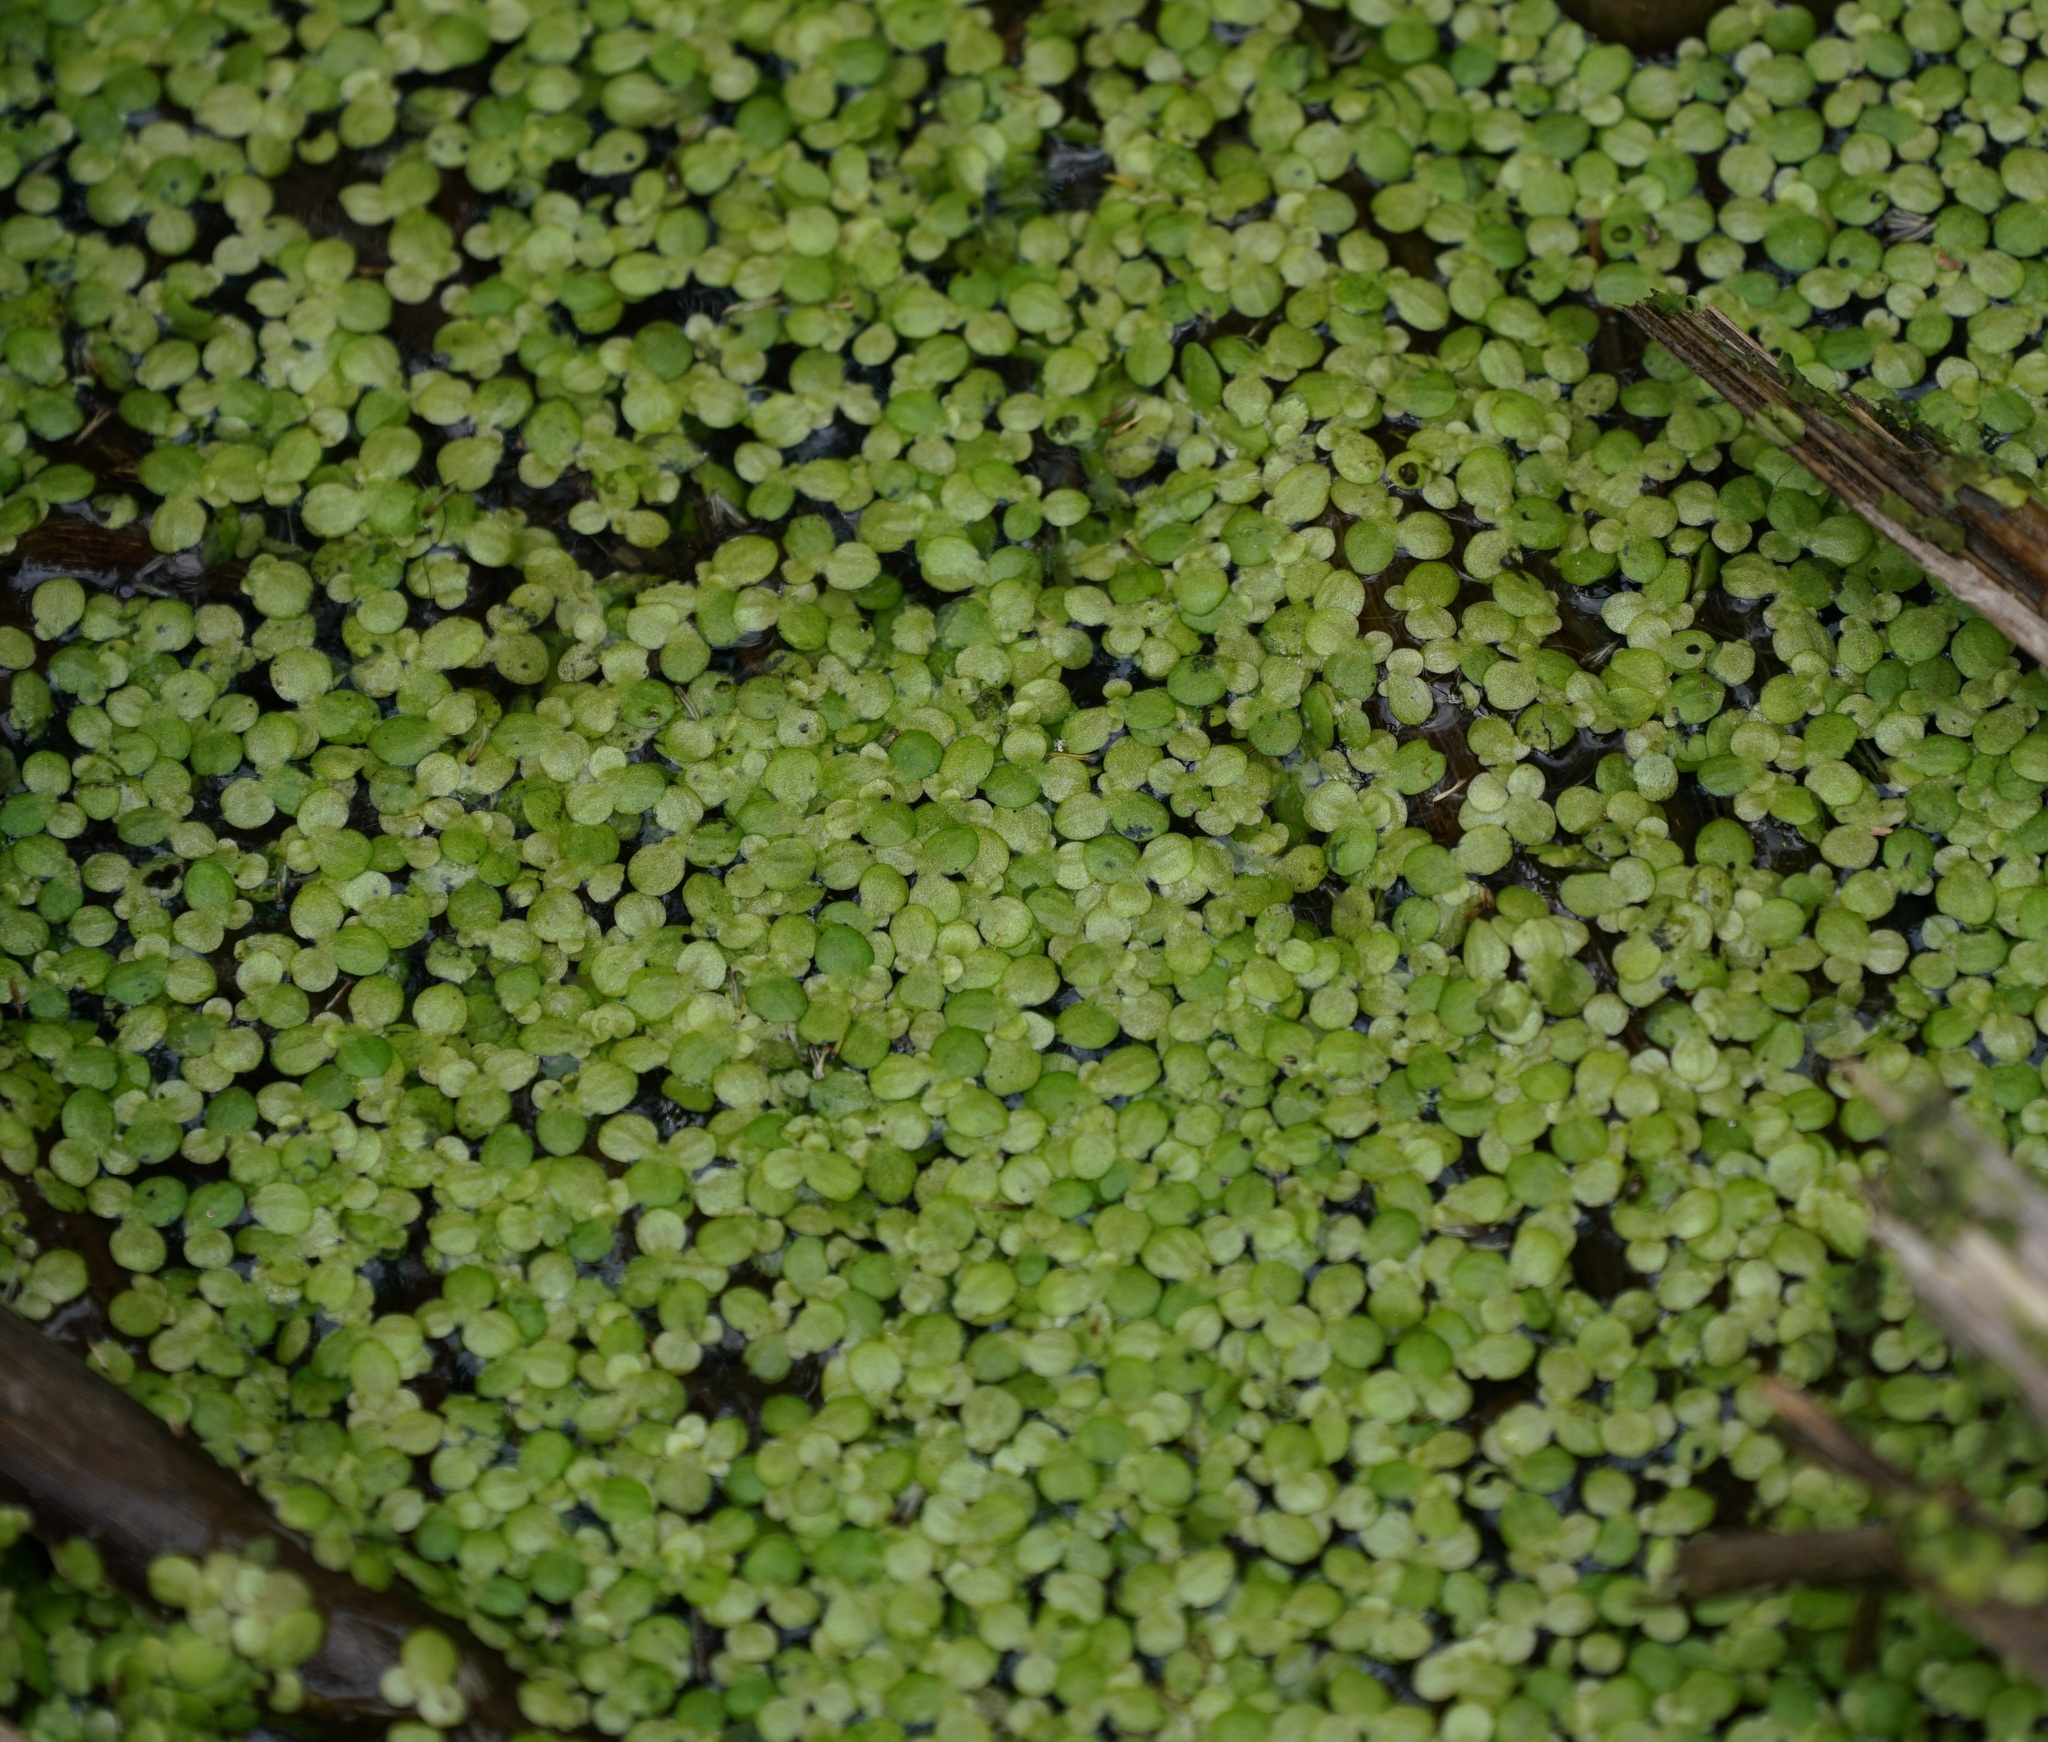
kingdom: Plantae
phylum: Tracheophyta
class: Liliopsida
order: Alismatales
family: Araceae
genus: Lemna
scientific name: Lemna minor
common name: Common duckweed
